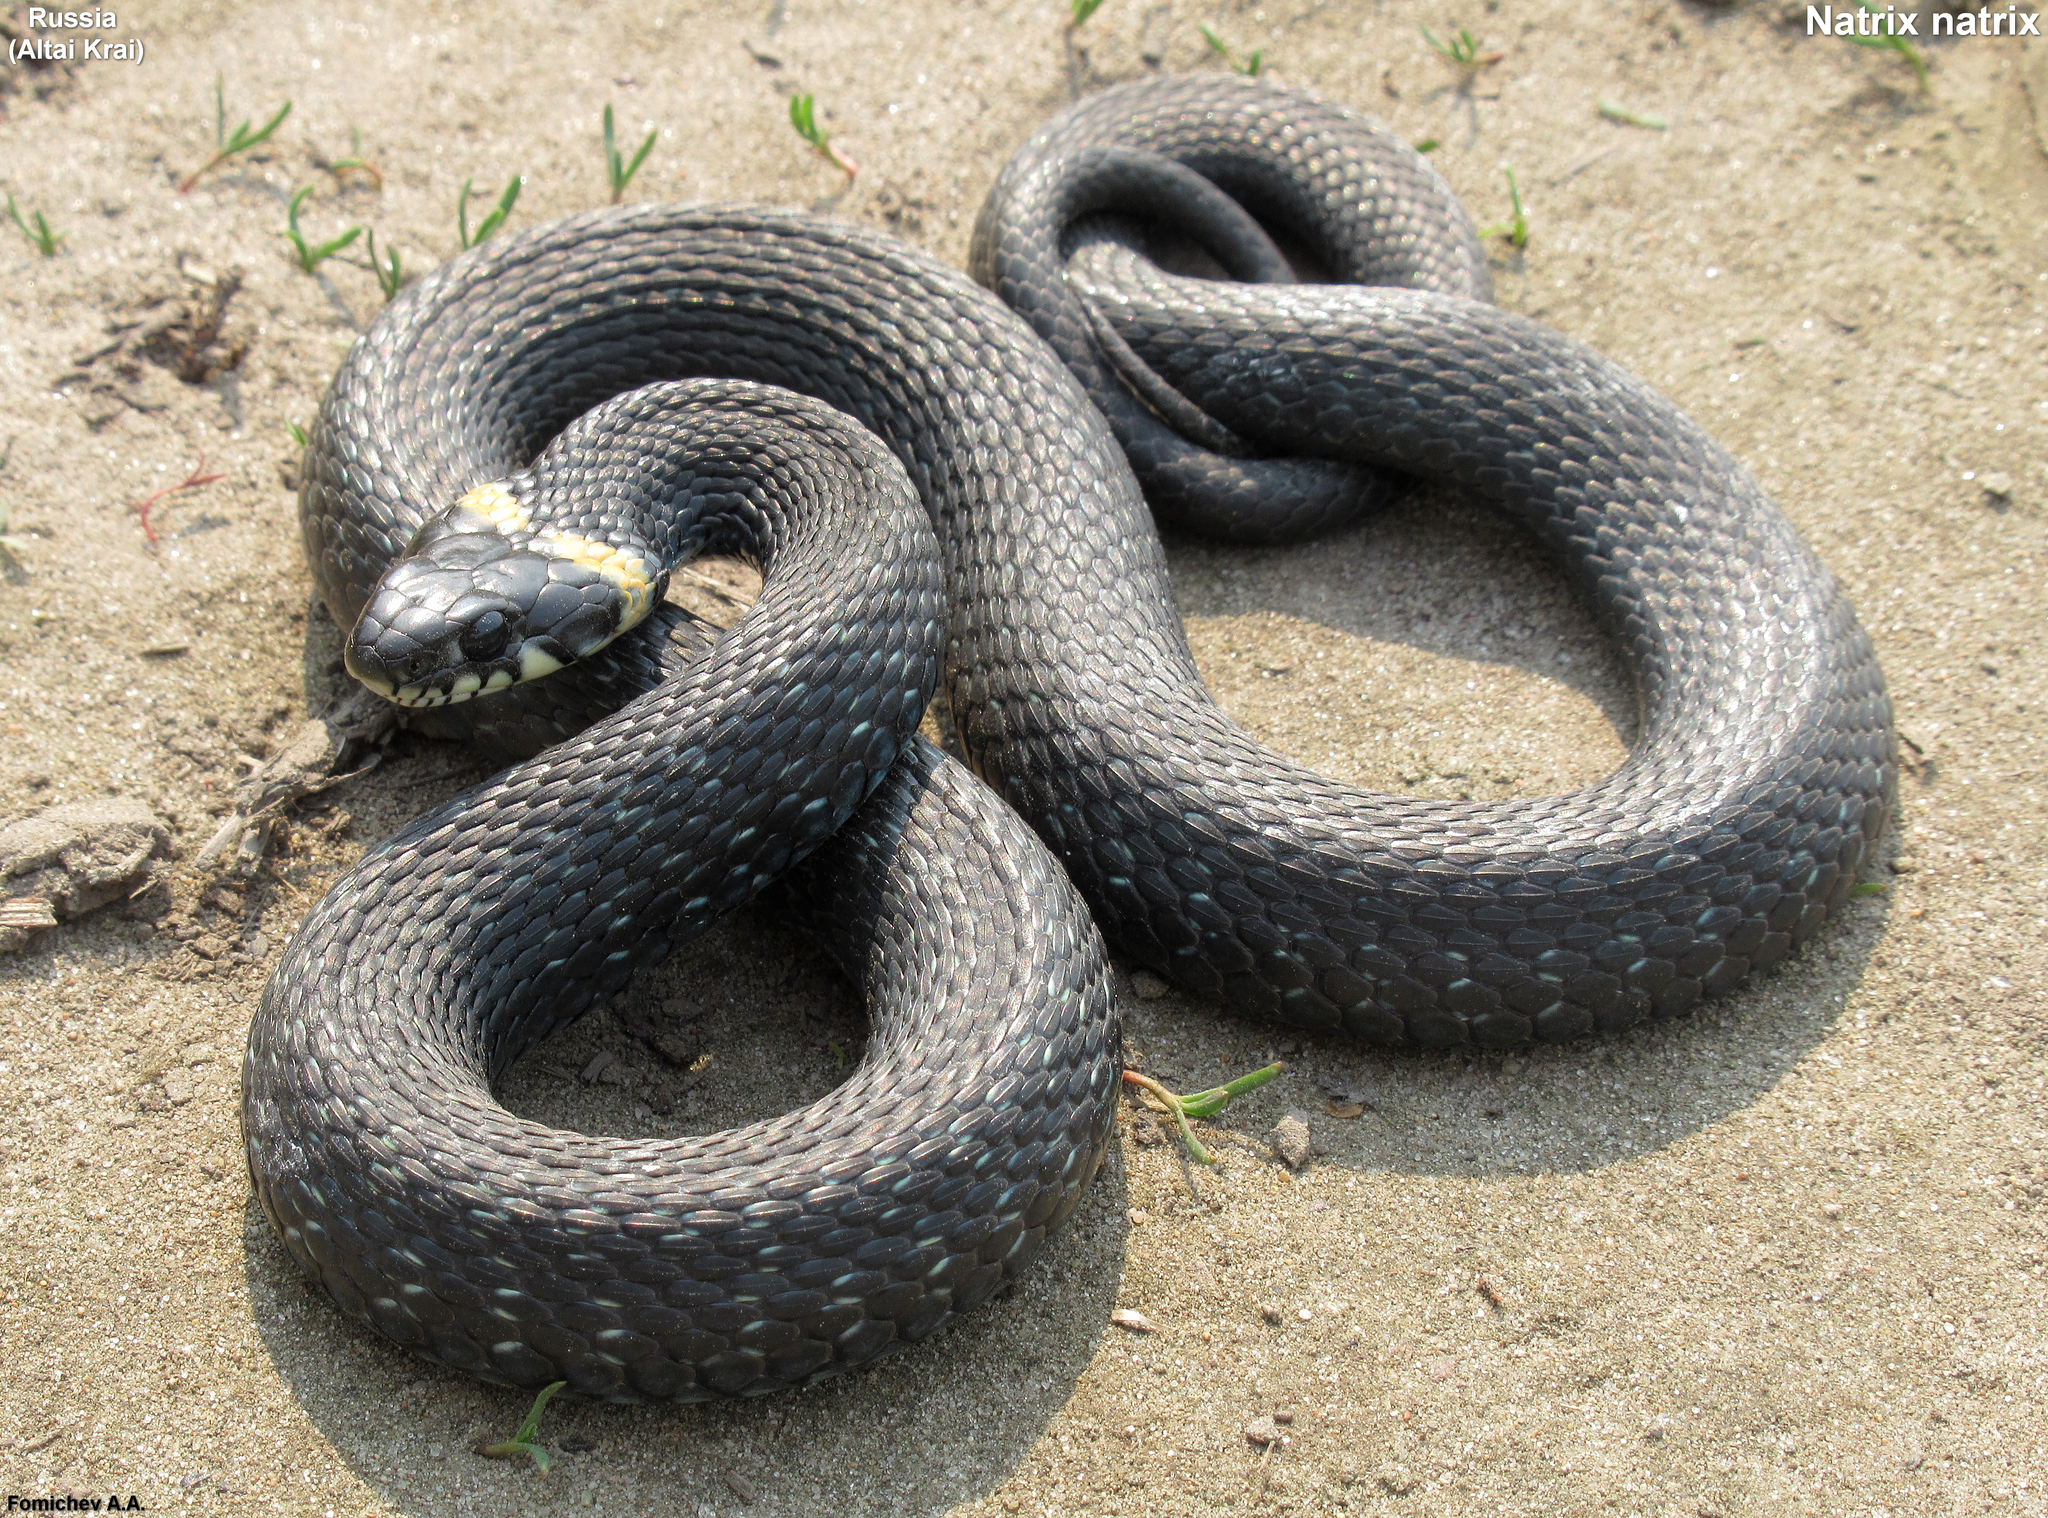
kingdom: Animalia
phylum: Chordata
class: Squamata
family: Colubridae
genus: Natrix
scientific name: Natrix natrix
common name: Grass snake
